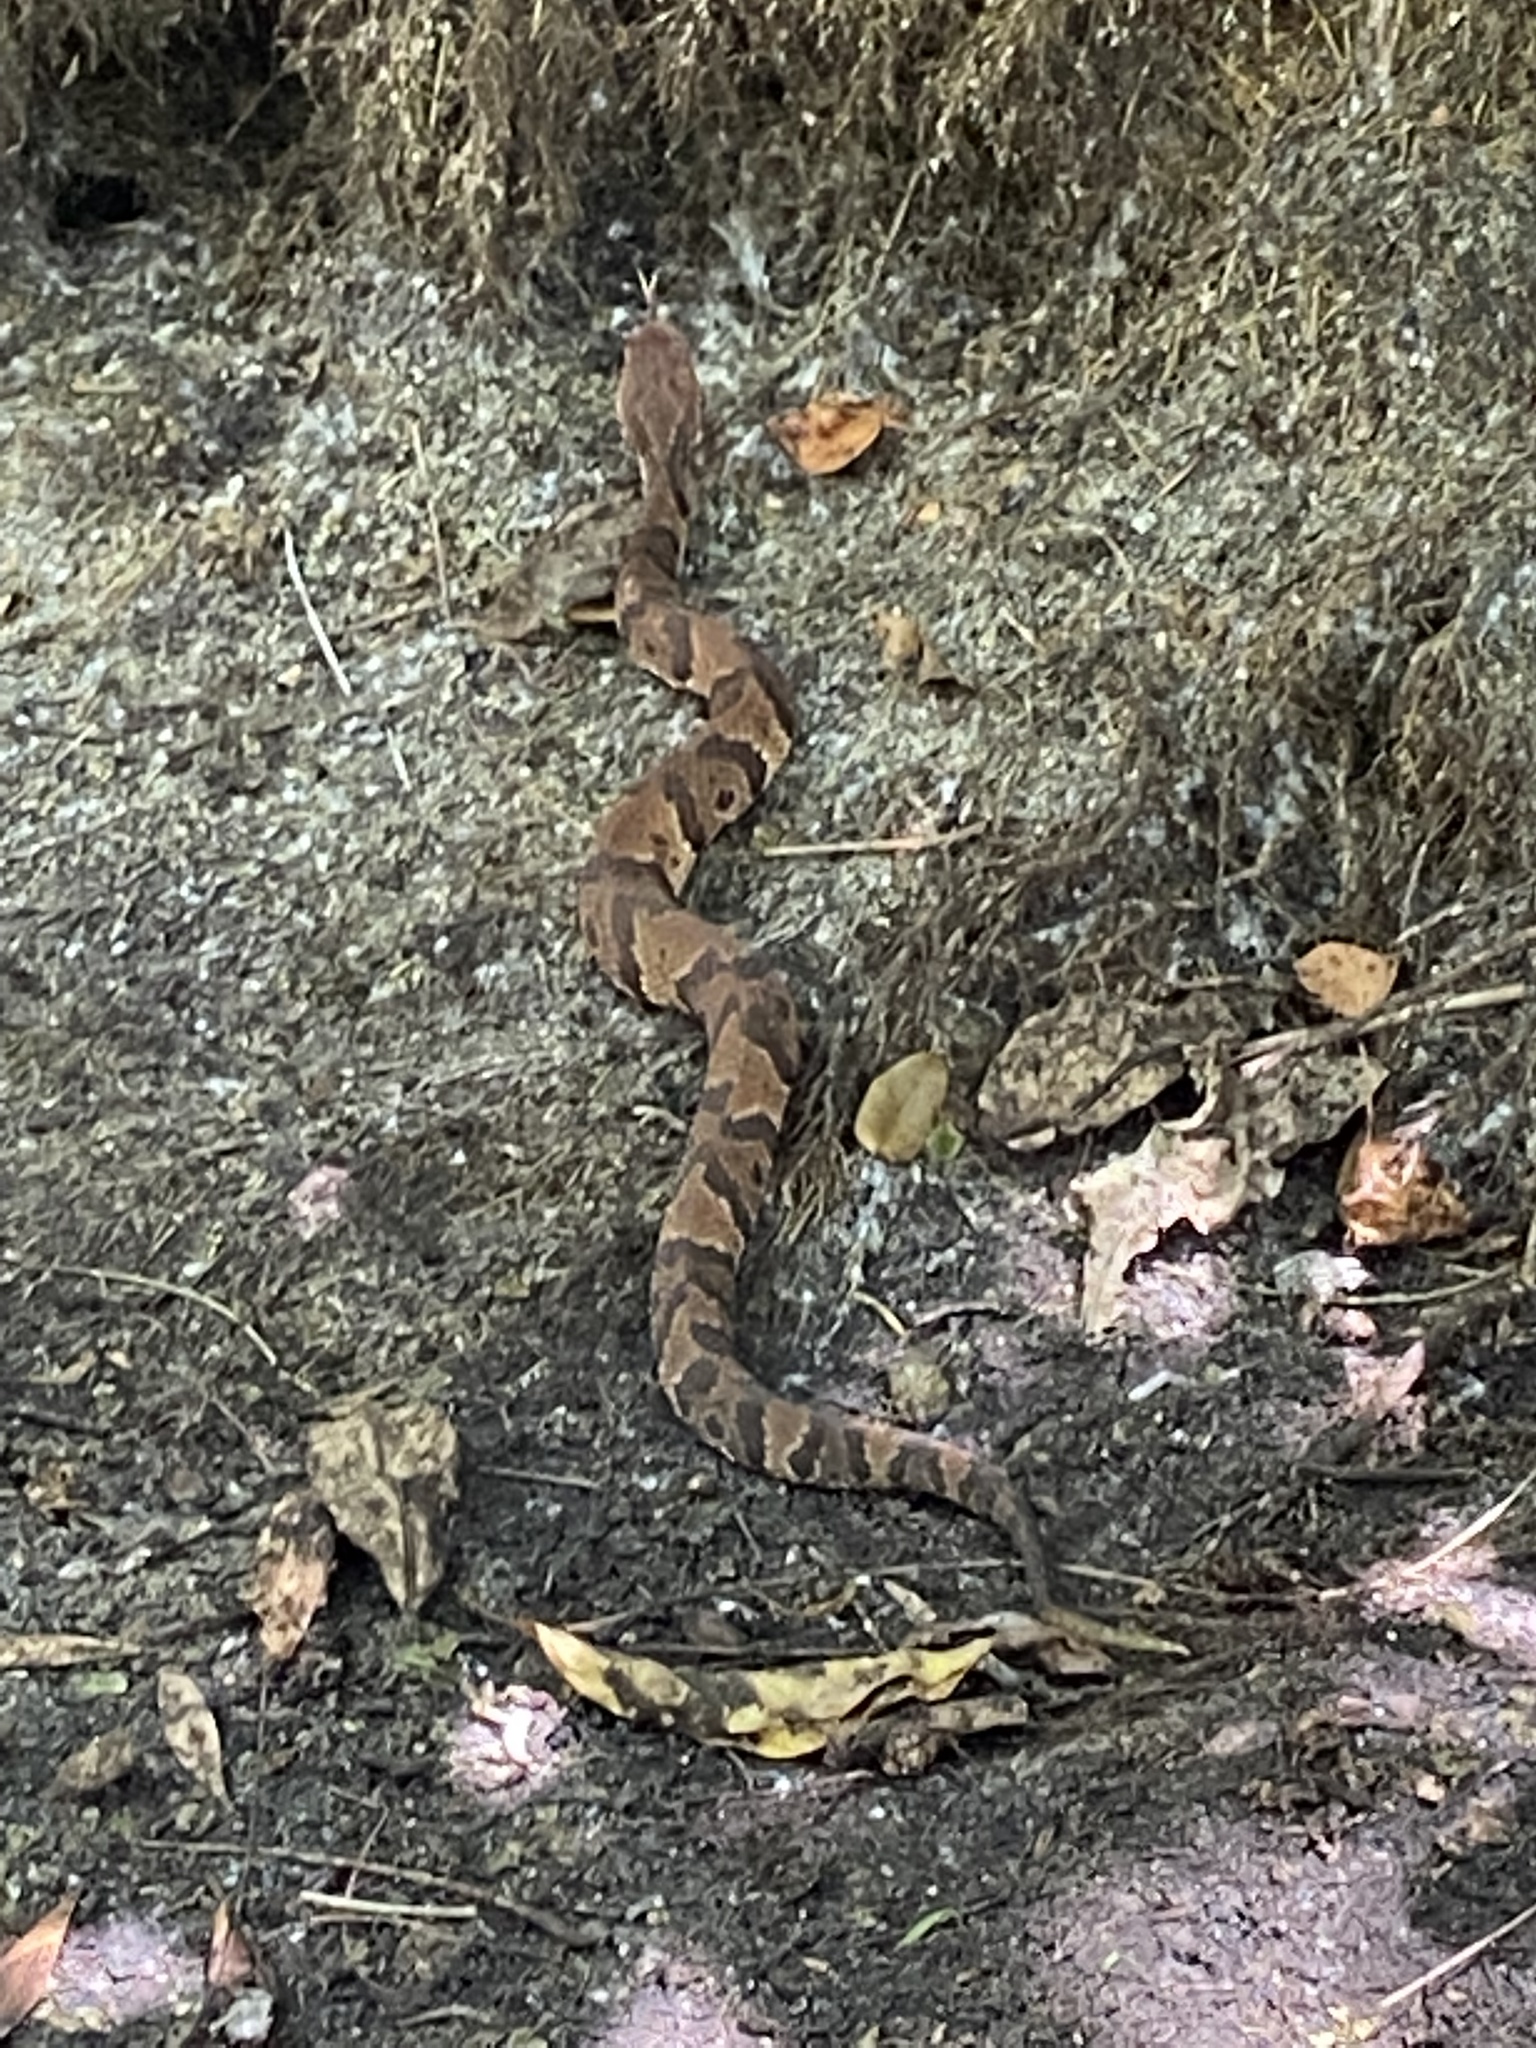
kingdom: Animalia
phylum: Chordata
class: Squamata
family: Viperidae
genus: Agkistrodon
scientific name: Agkistrodon conanti
